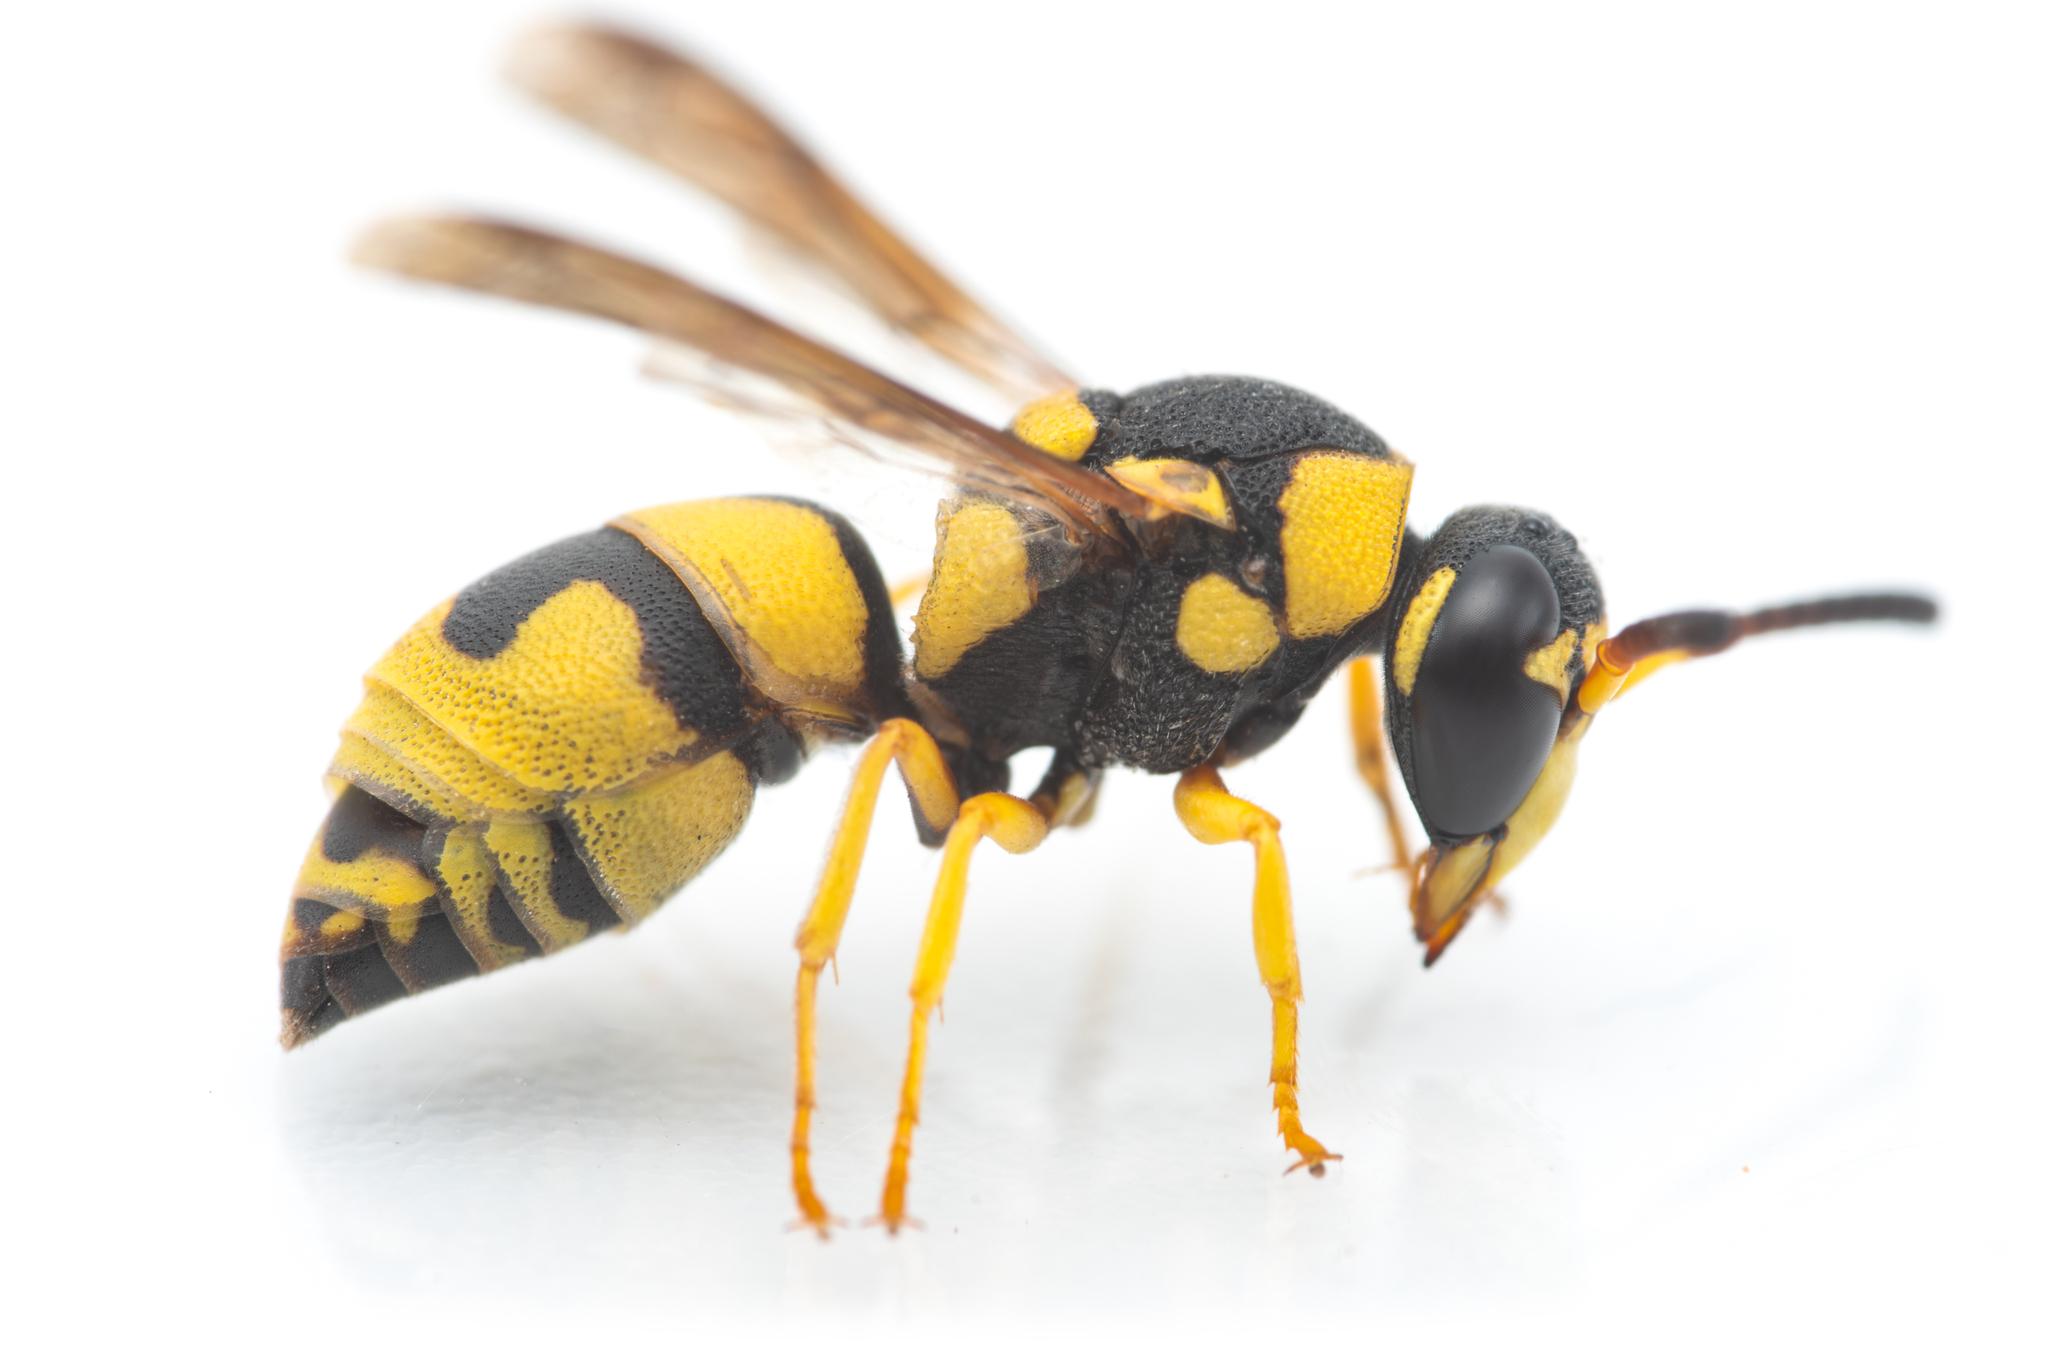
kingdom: Animalia
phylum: Arthropoda
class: Insecta
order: Hymenoptera
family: Eumenidae
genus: Euodynerus
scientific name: Euodynerus variegatus
